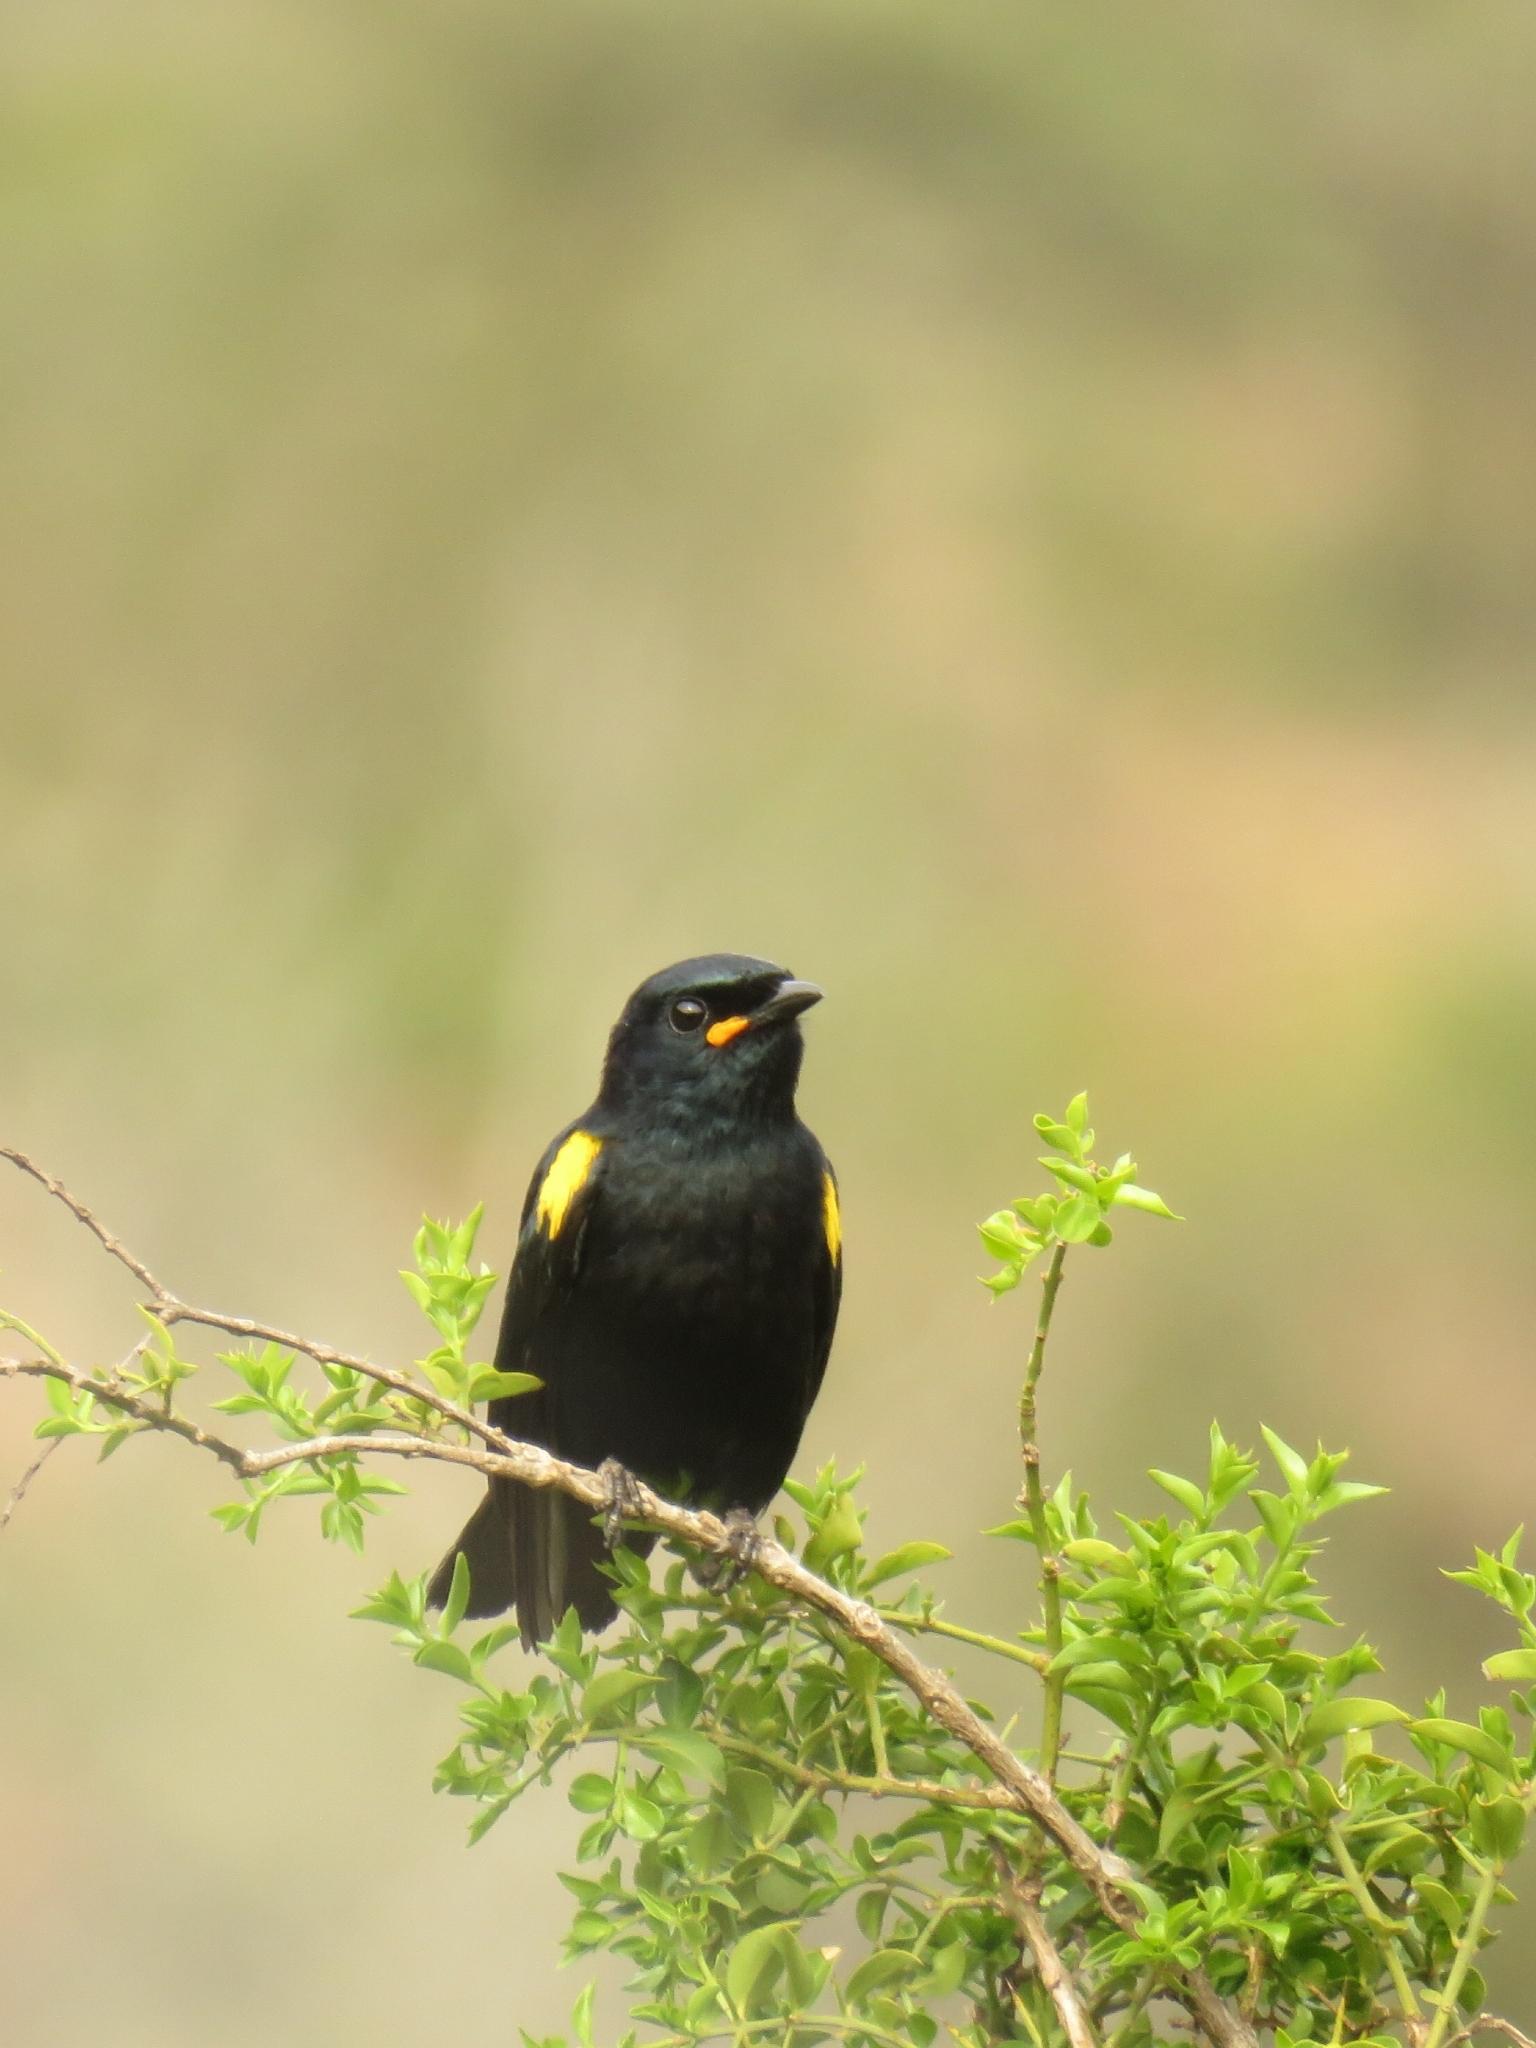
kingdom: Animalia
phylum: Chordata
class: Aves
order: Passeriformes
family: Campephagidae
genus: Campephaga
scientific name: Campephaga flava
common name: Black cuckooshrike
